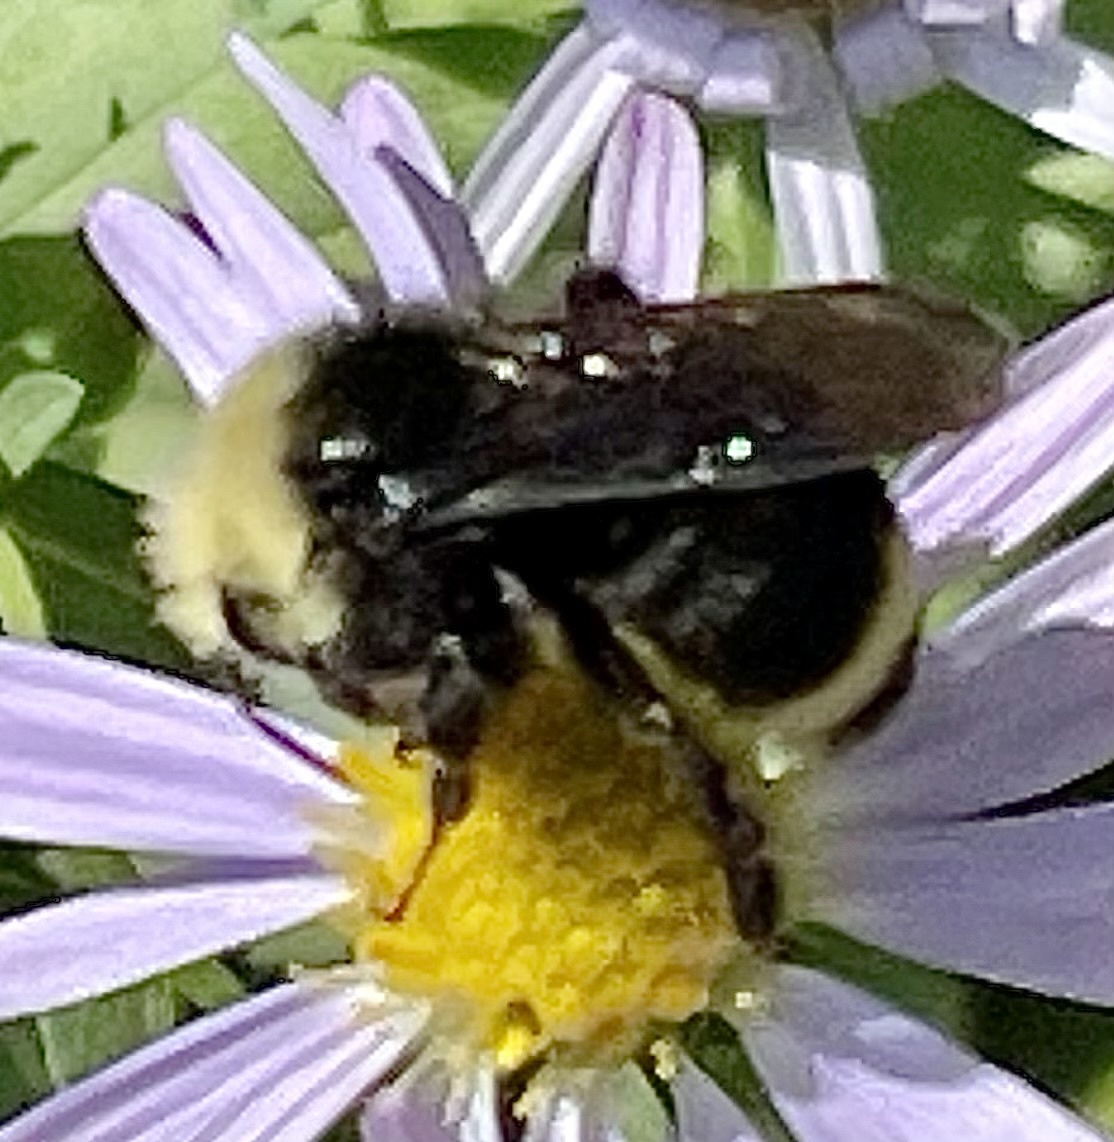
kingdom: Animalia
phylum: Arthropoda
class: Insecta
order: Hymenoptera
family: Apidae
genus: Bombus
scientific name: Bombus vosnesenskii
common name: Vosnesensky bumble bee
